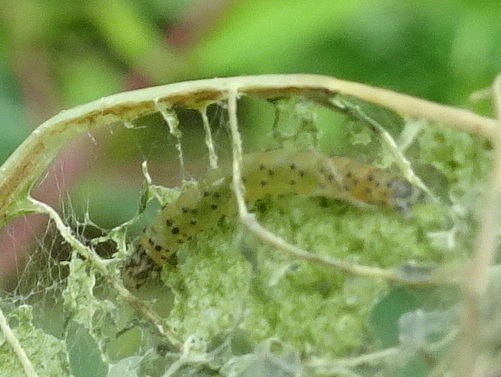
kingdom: Animalia
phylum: Arthropoda
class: Insecta
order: Lepidoptera
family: Crambidae
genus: Saucrobotys
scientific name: Saucrobotys futilalis
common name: Dogbane saucrobotys moth
